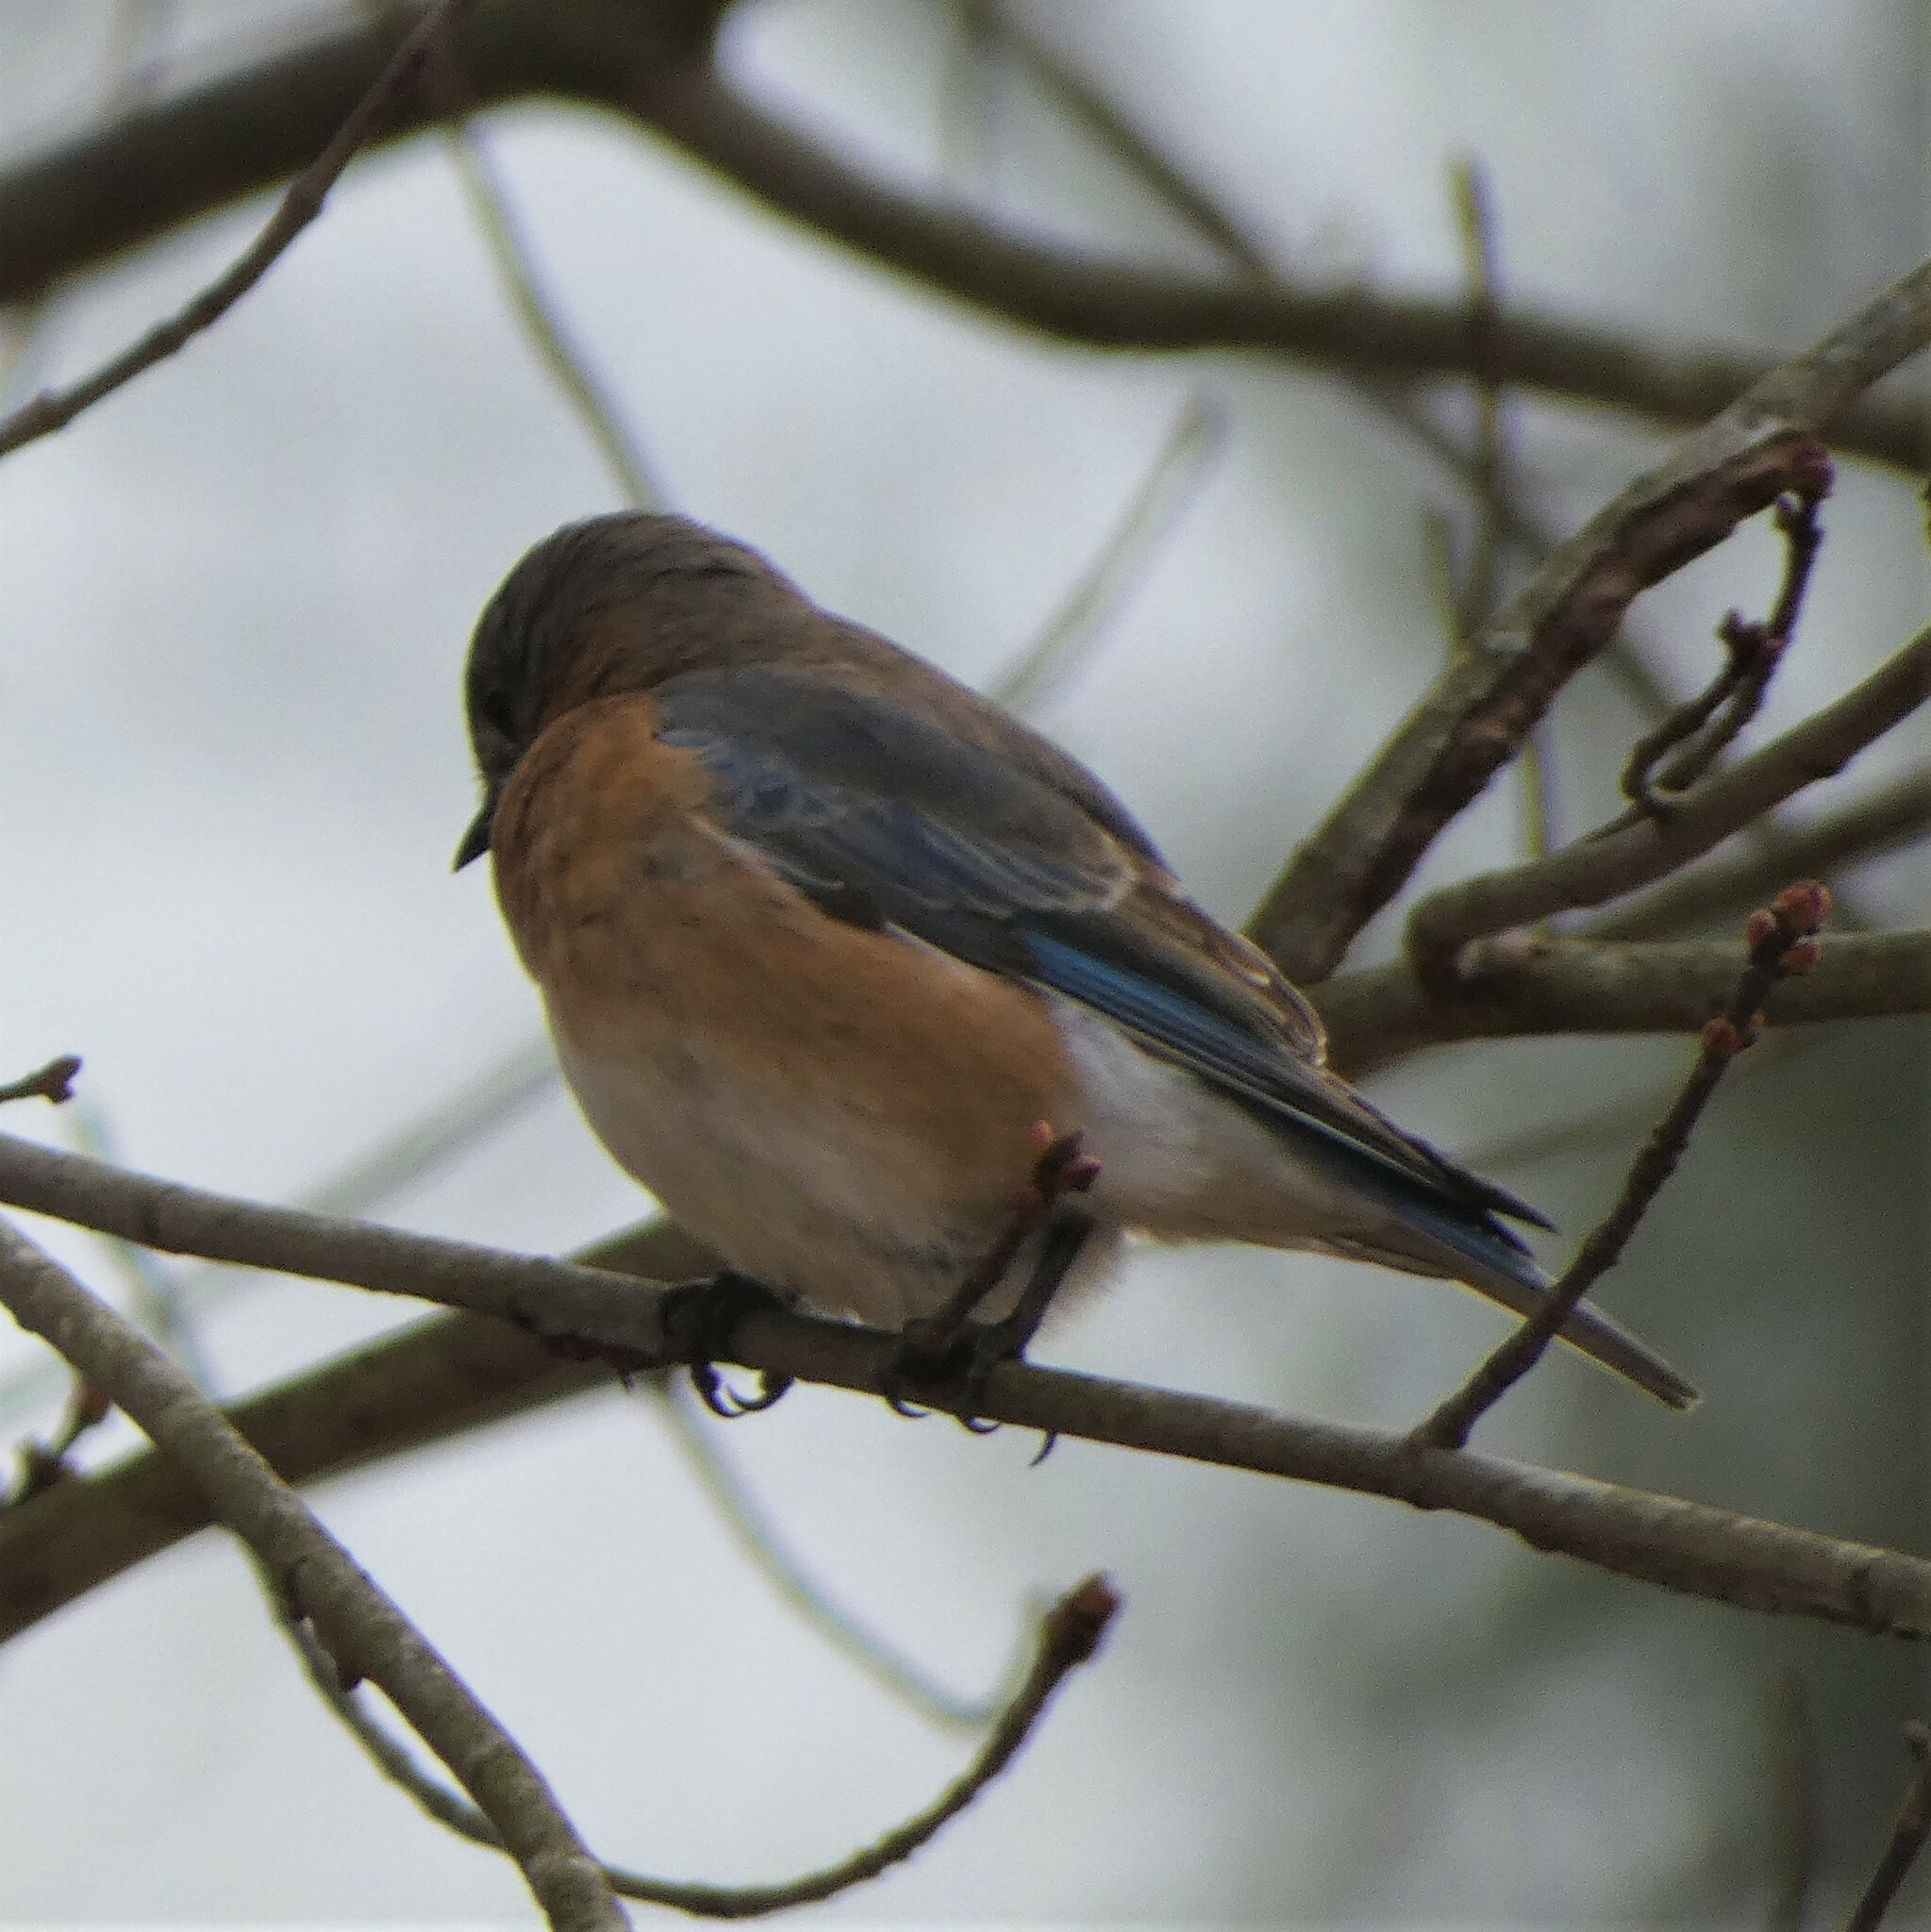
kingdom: Animalia
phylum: Chordata
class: Aves
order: Passeriformes
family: Turdidae
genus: Sialia
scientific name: Sialia sialis
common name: Eastern bluebird
